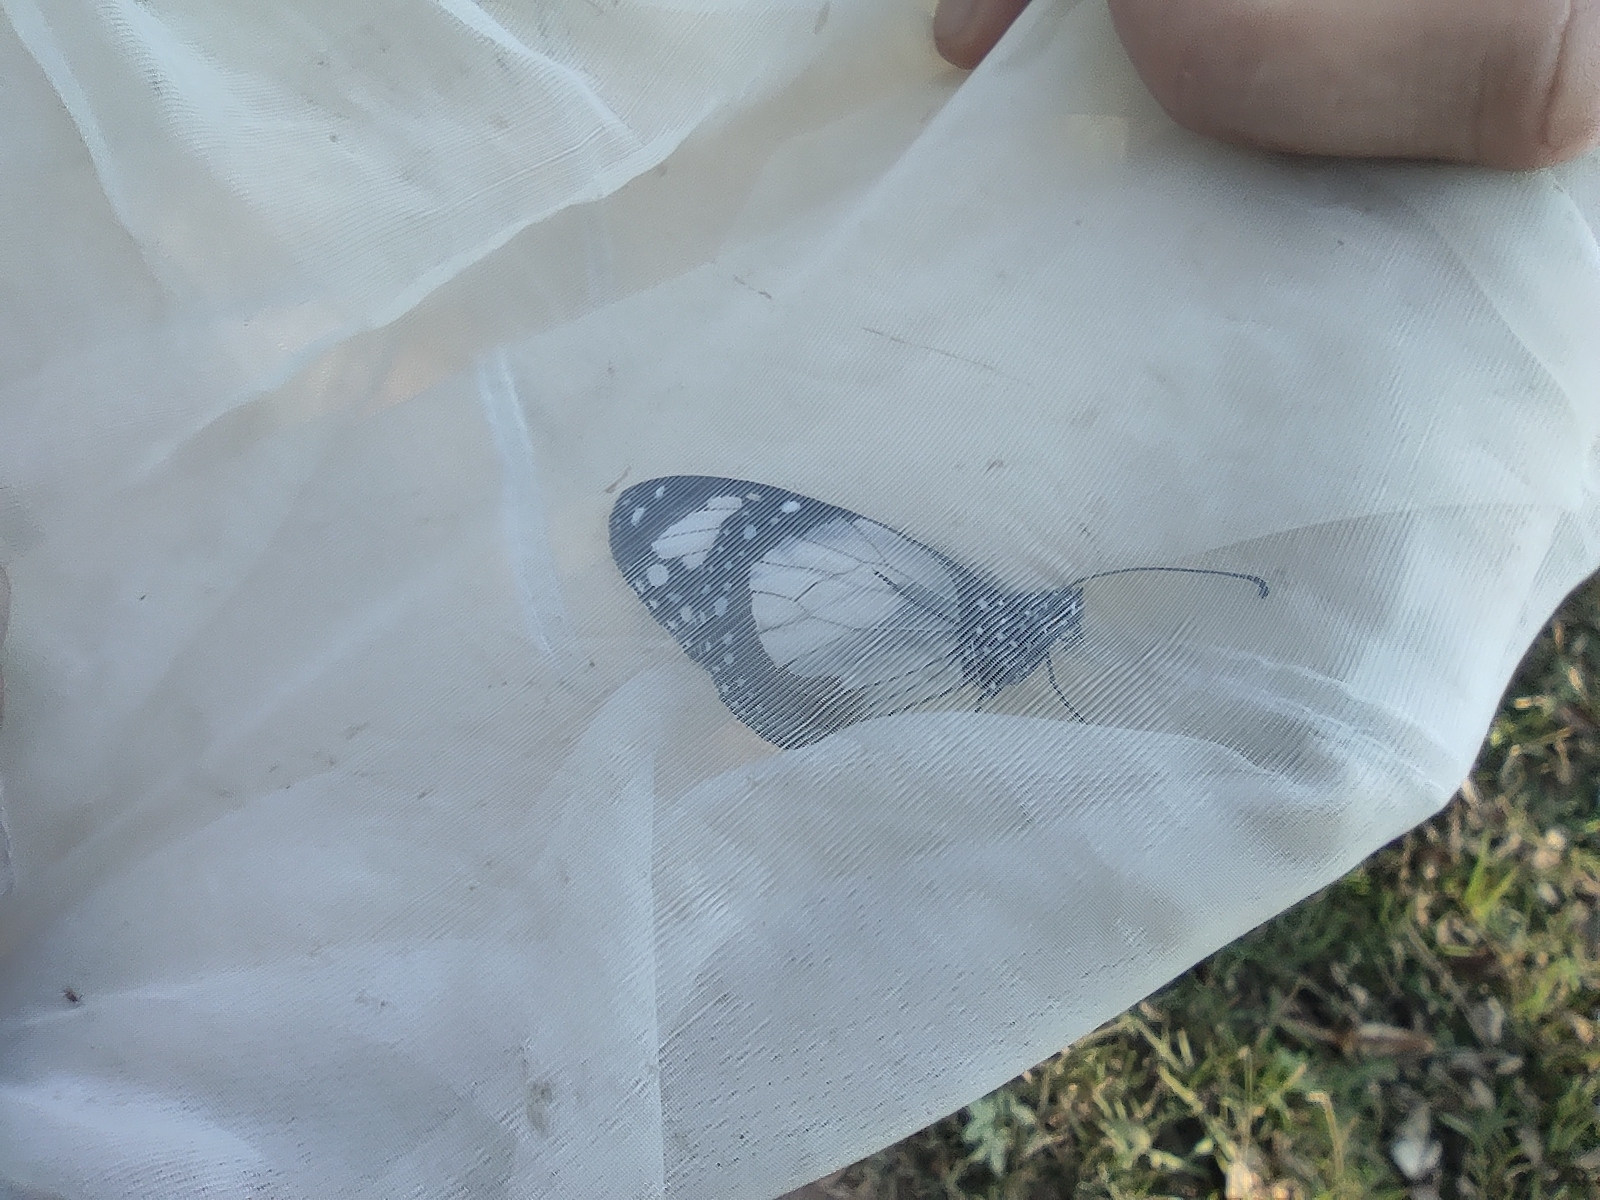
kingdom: Animalia
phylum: Arthropoda
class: Insecta
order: Lepidoptera
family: Nymphalidae
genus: Amauris
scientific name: Amauris nossima
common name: Madagascan friar
